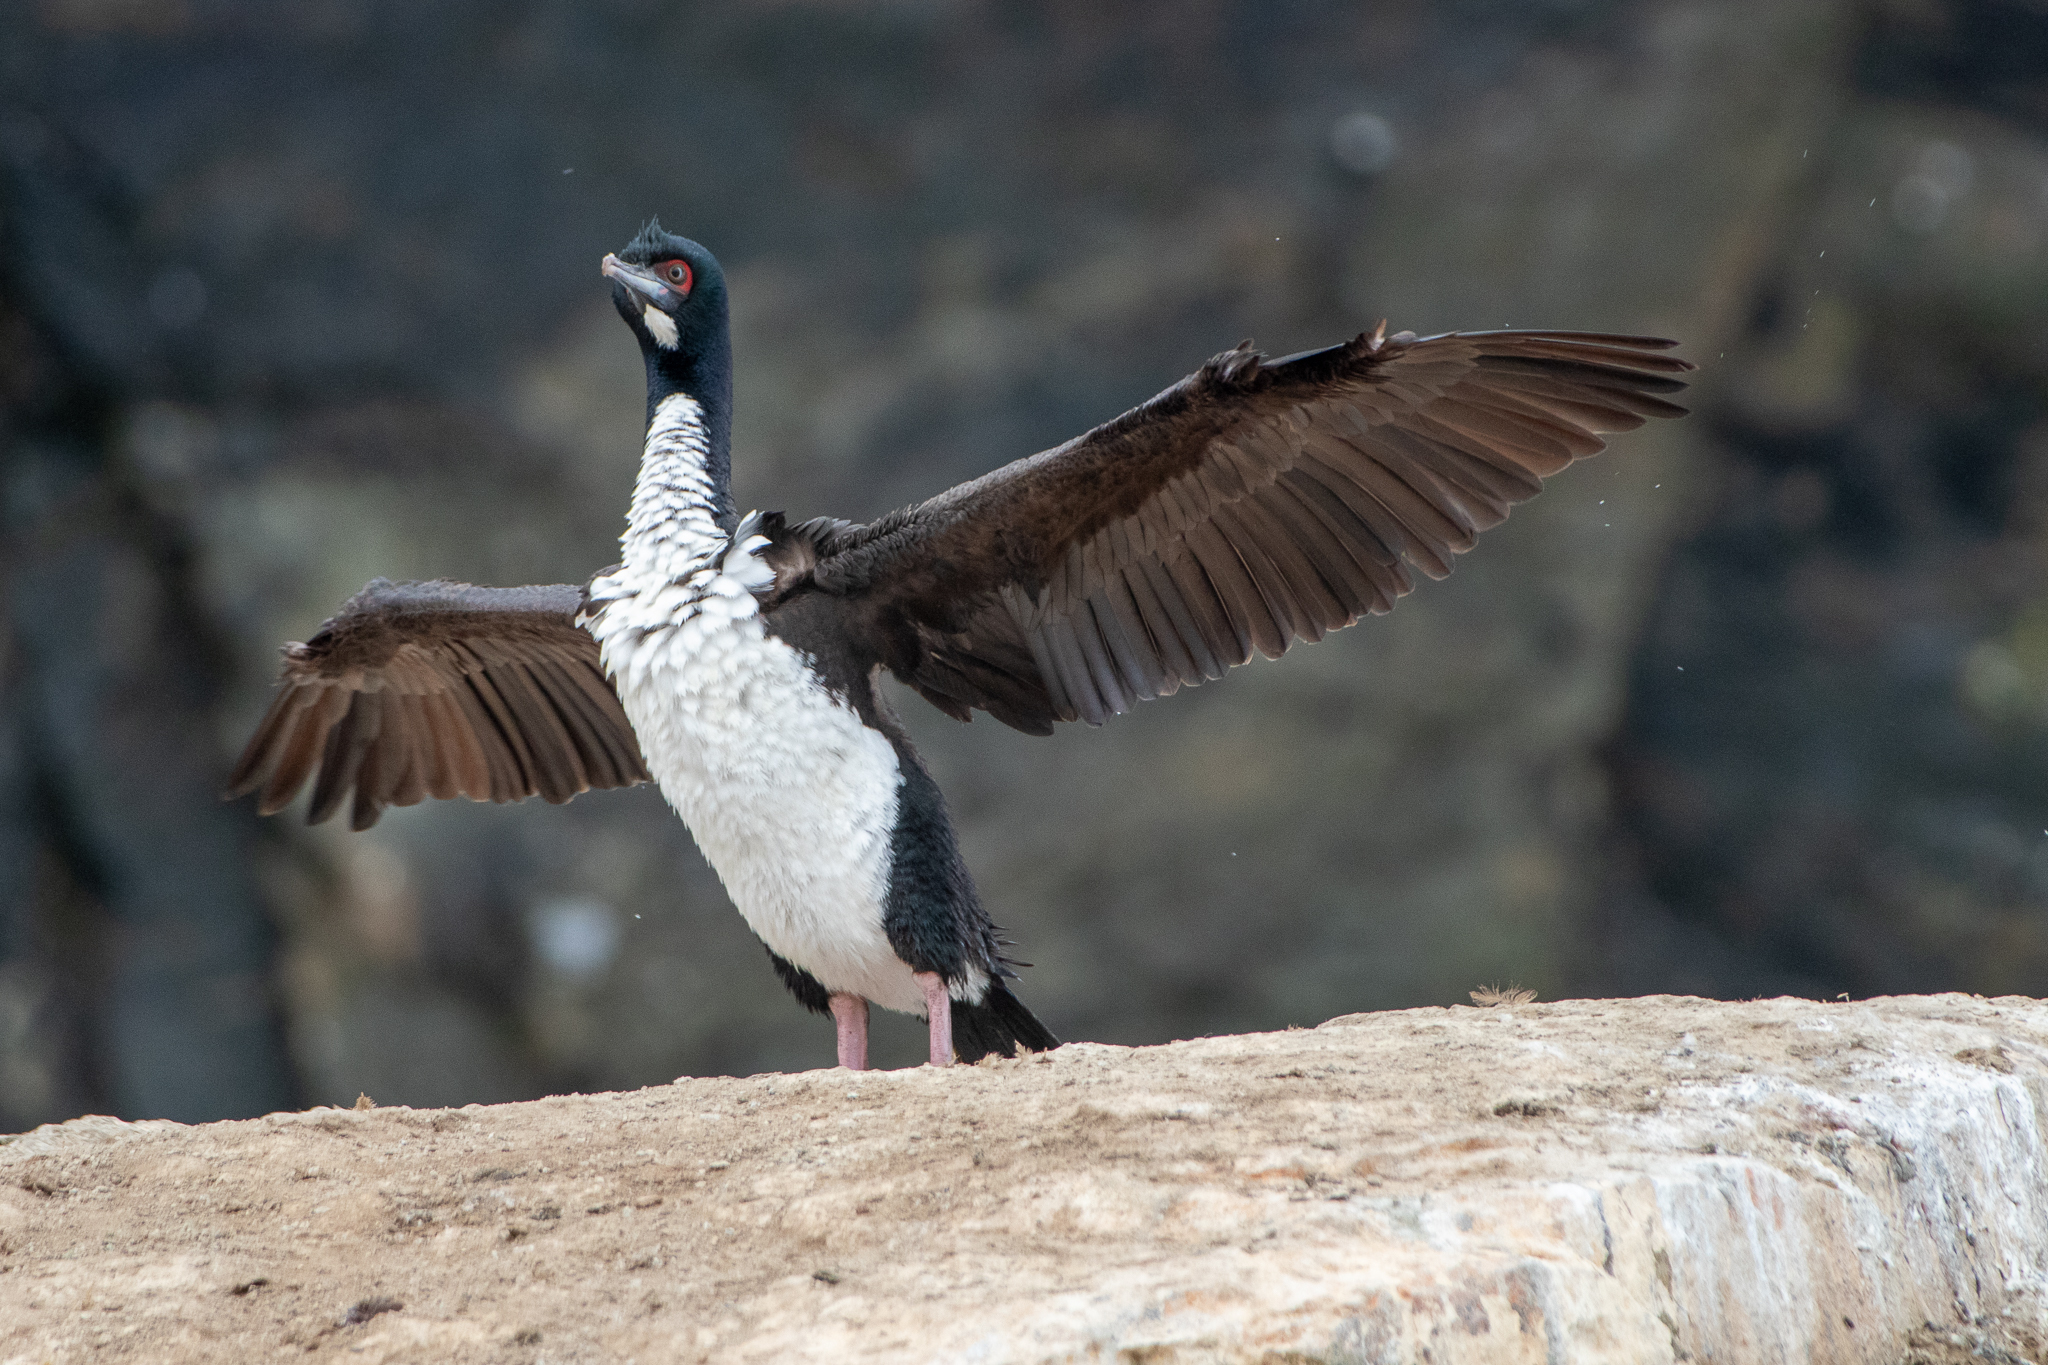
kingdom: Animalia
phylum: Chordata
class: Aves
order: Suliformes
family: Phalacrocoracidae
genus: Leucocarbo
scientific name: Leucocarbo bougainvillii
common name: Guanay cormorant
